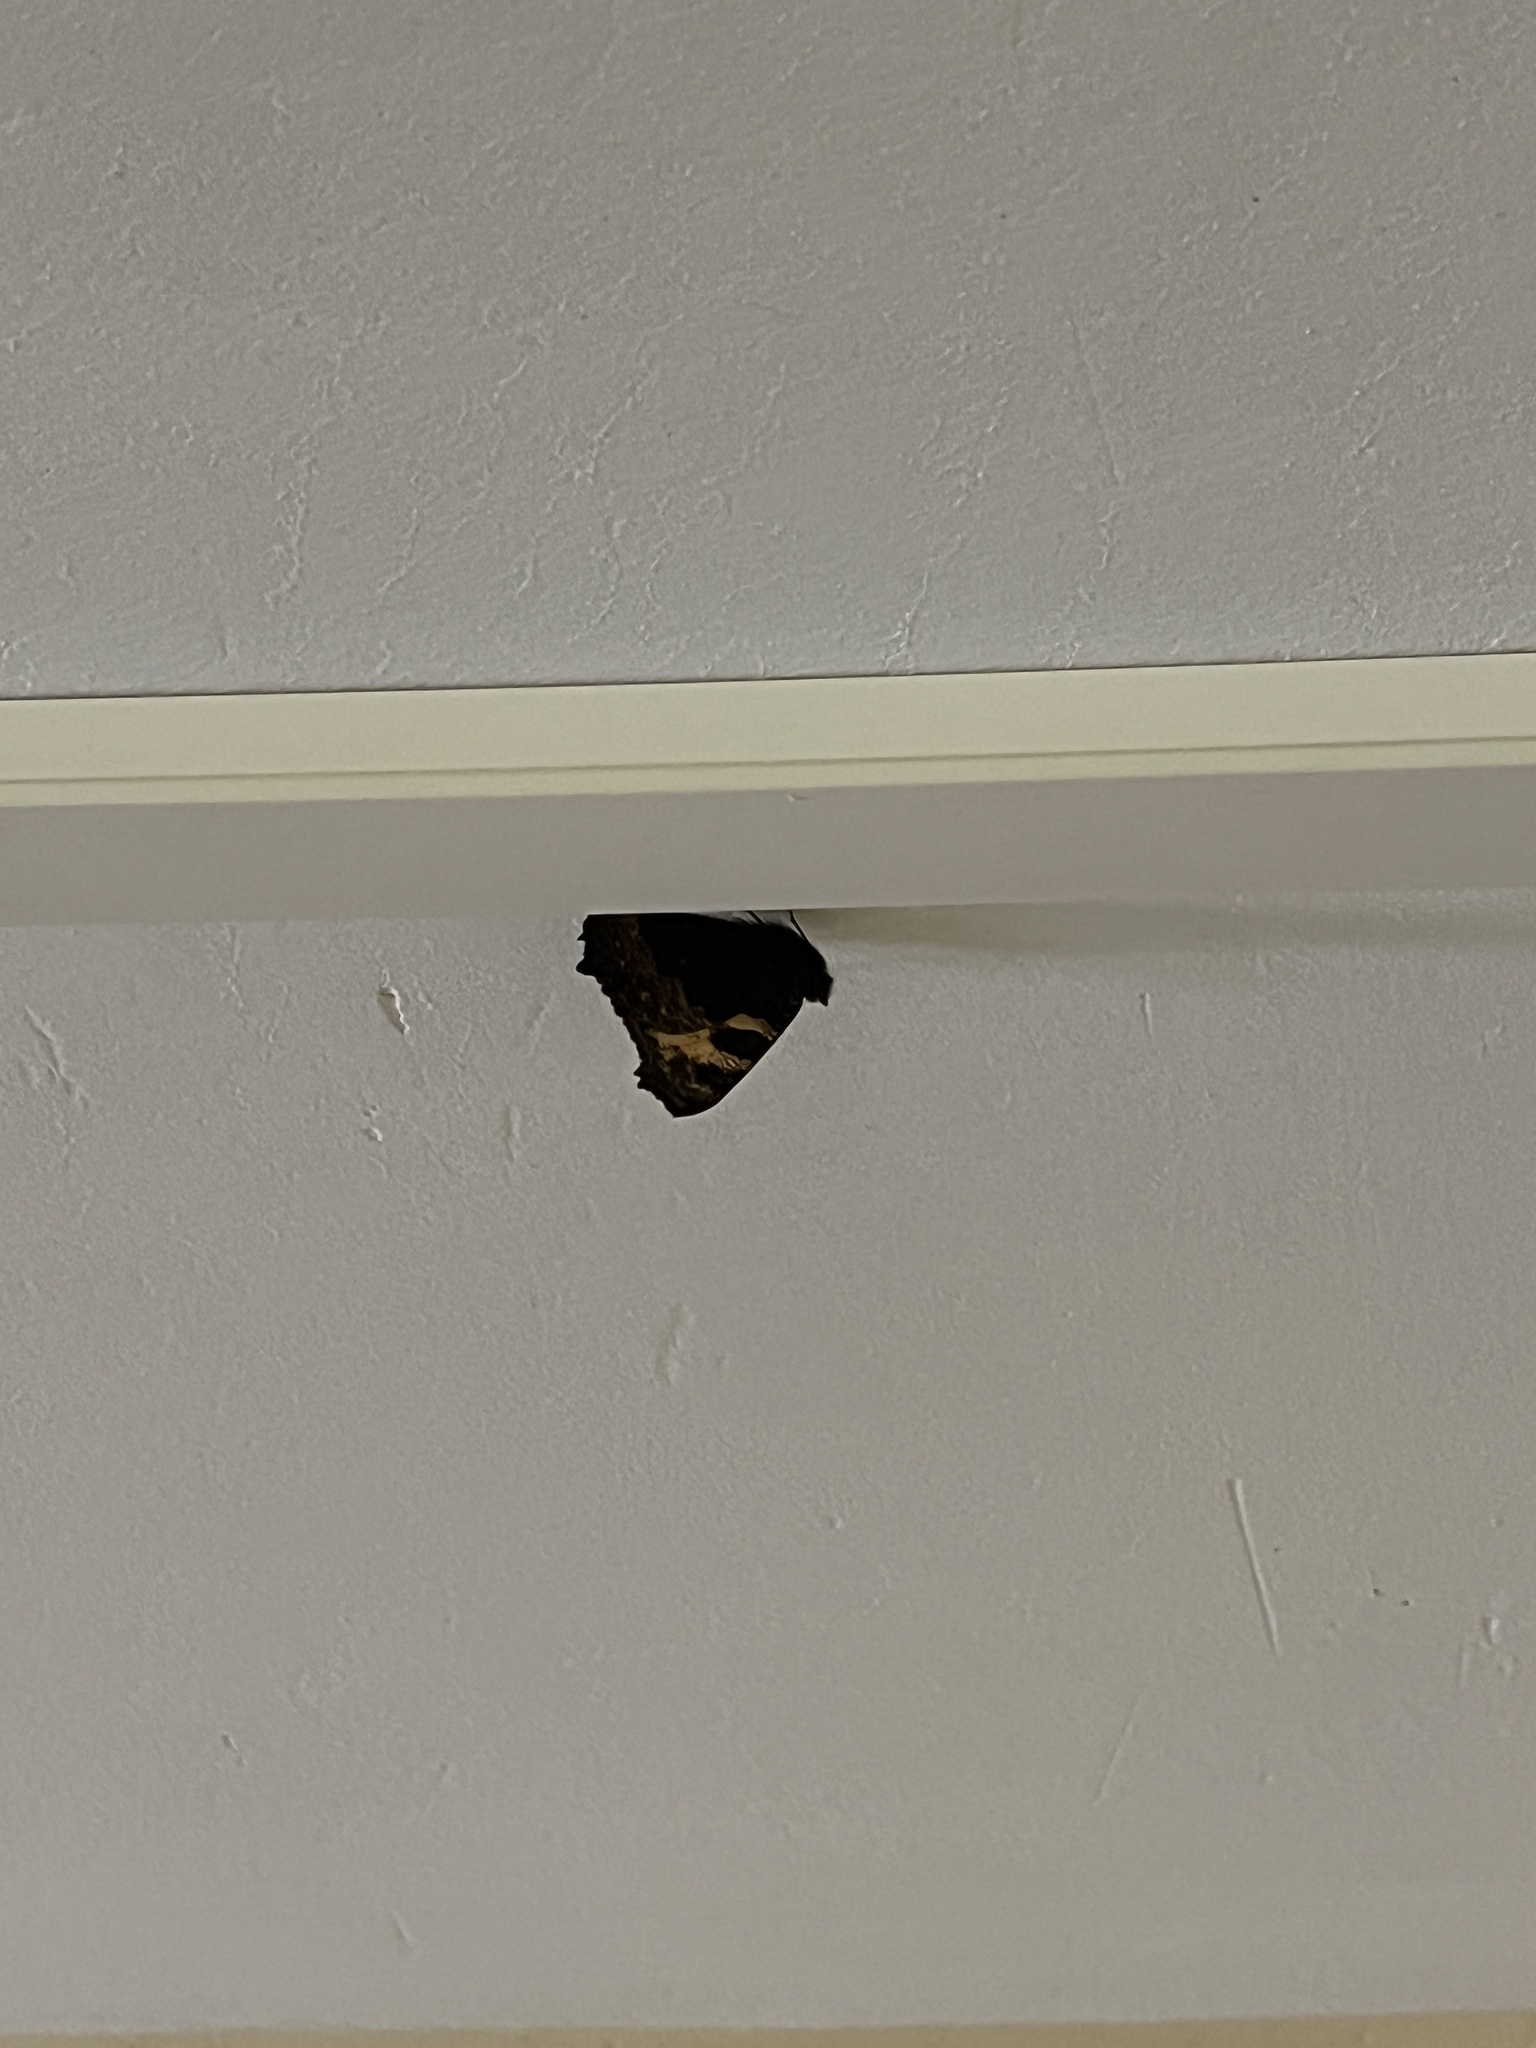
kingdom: Animalia
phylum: Arthropoda
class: Insecta
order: Lepidoptera
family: Nymphalidae
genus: Aglais
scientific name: Aglais urticae
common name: Small tortoiseshell
